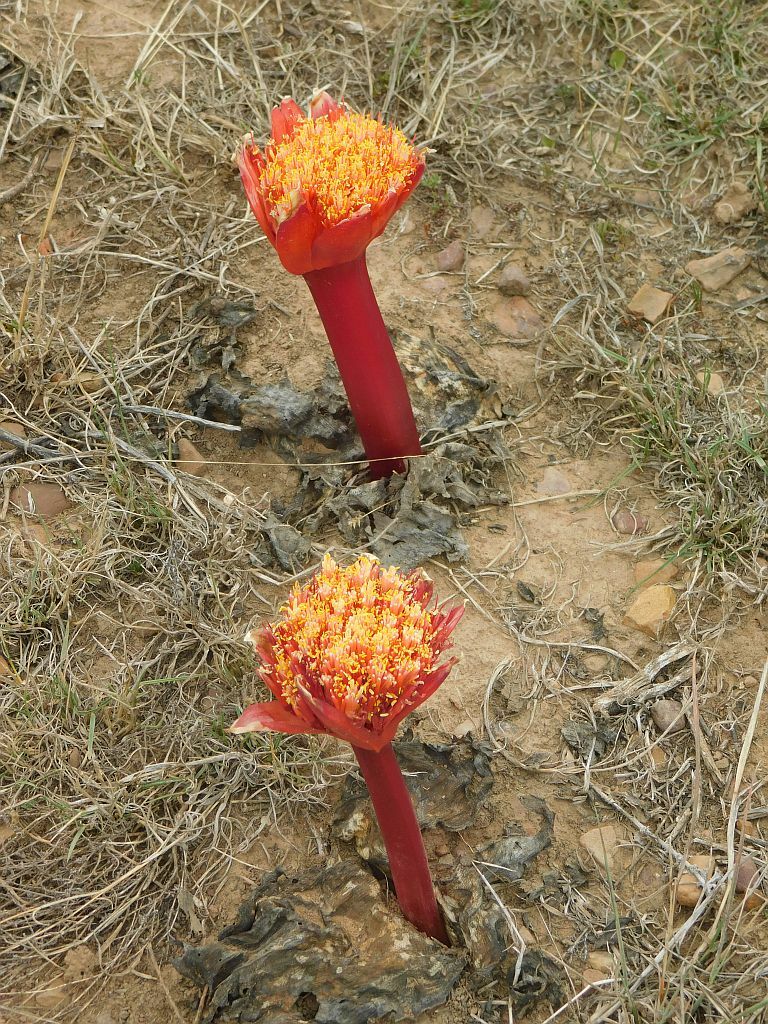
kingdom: Plantae
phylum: Tracheophyta
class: Liliopsida
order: Asparagales
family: Amaryllidaceae
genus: Haemanthus
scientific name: Haemanthus sanguineus
